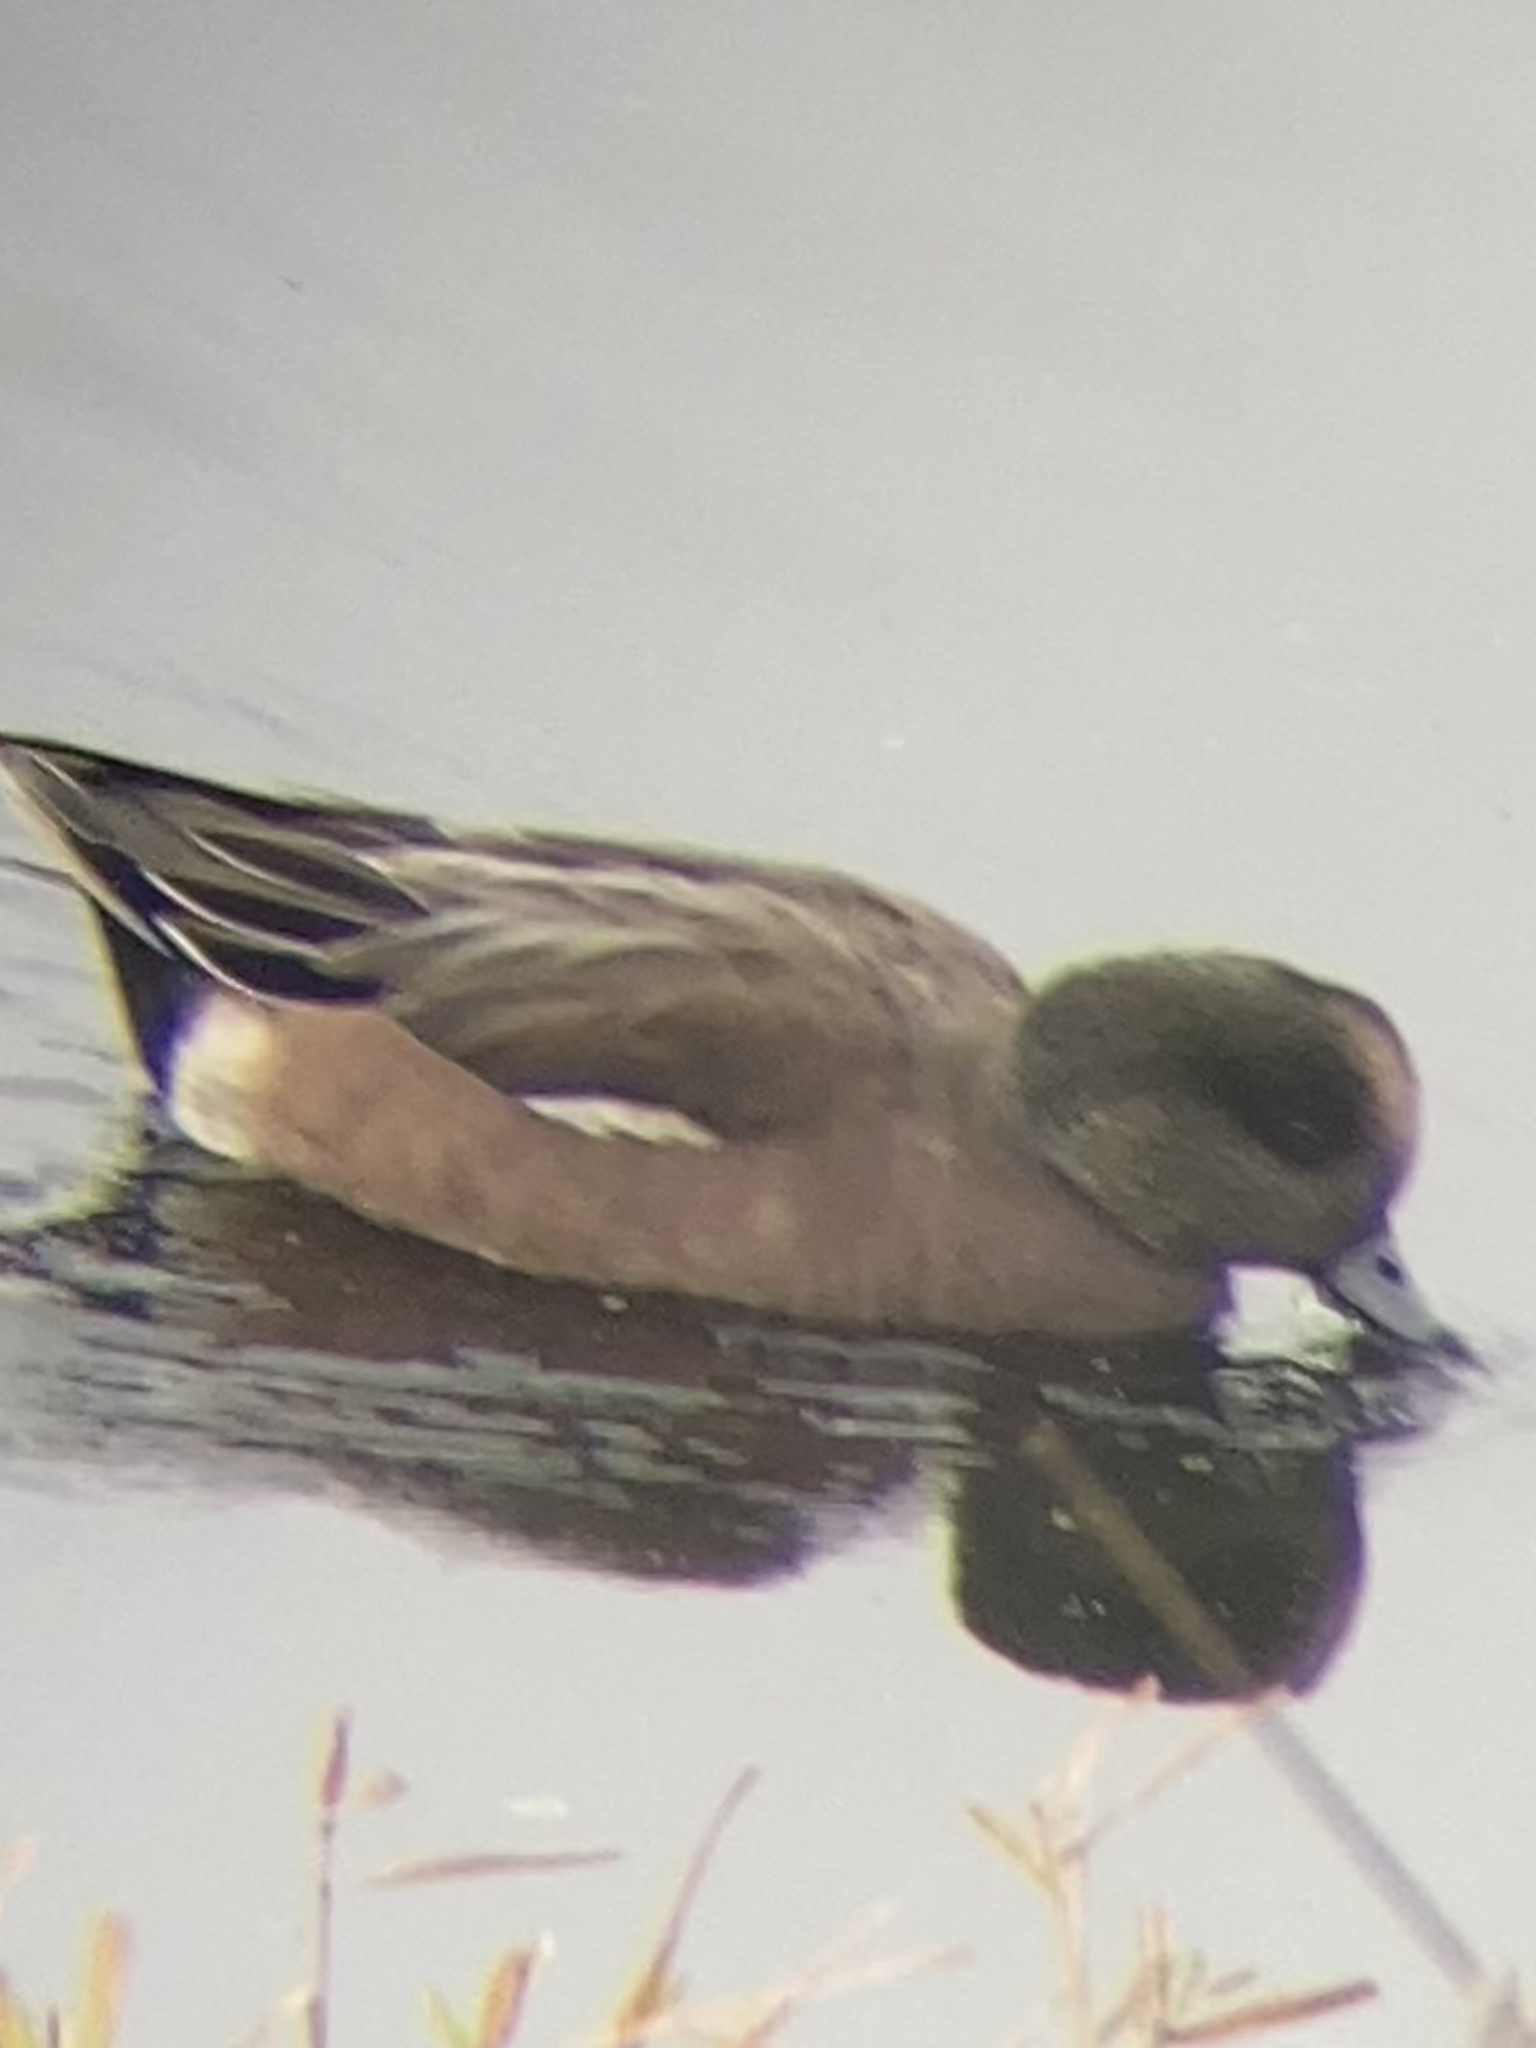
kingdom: Animalia
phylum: Chordata
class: Aves
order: Anseriformes
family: Anatidae
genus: Mareca
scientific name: Mareca americana
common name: American wigeon
